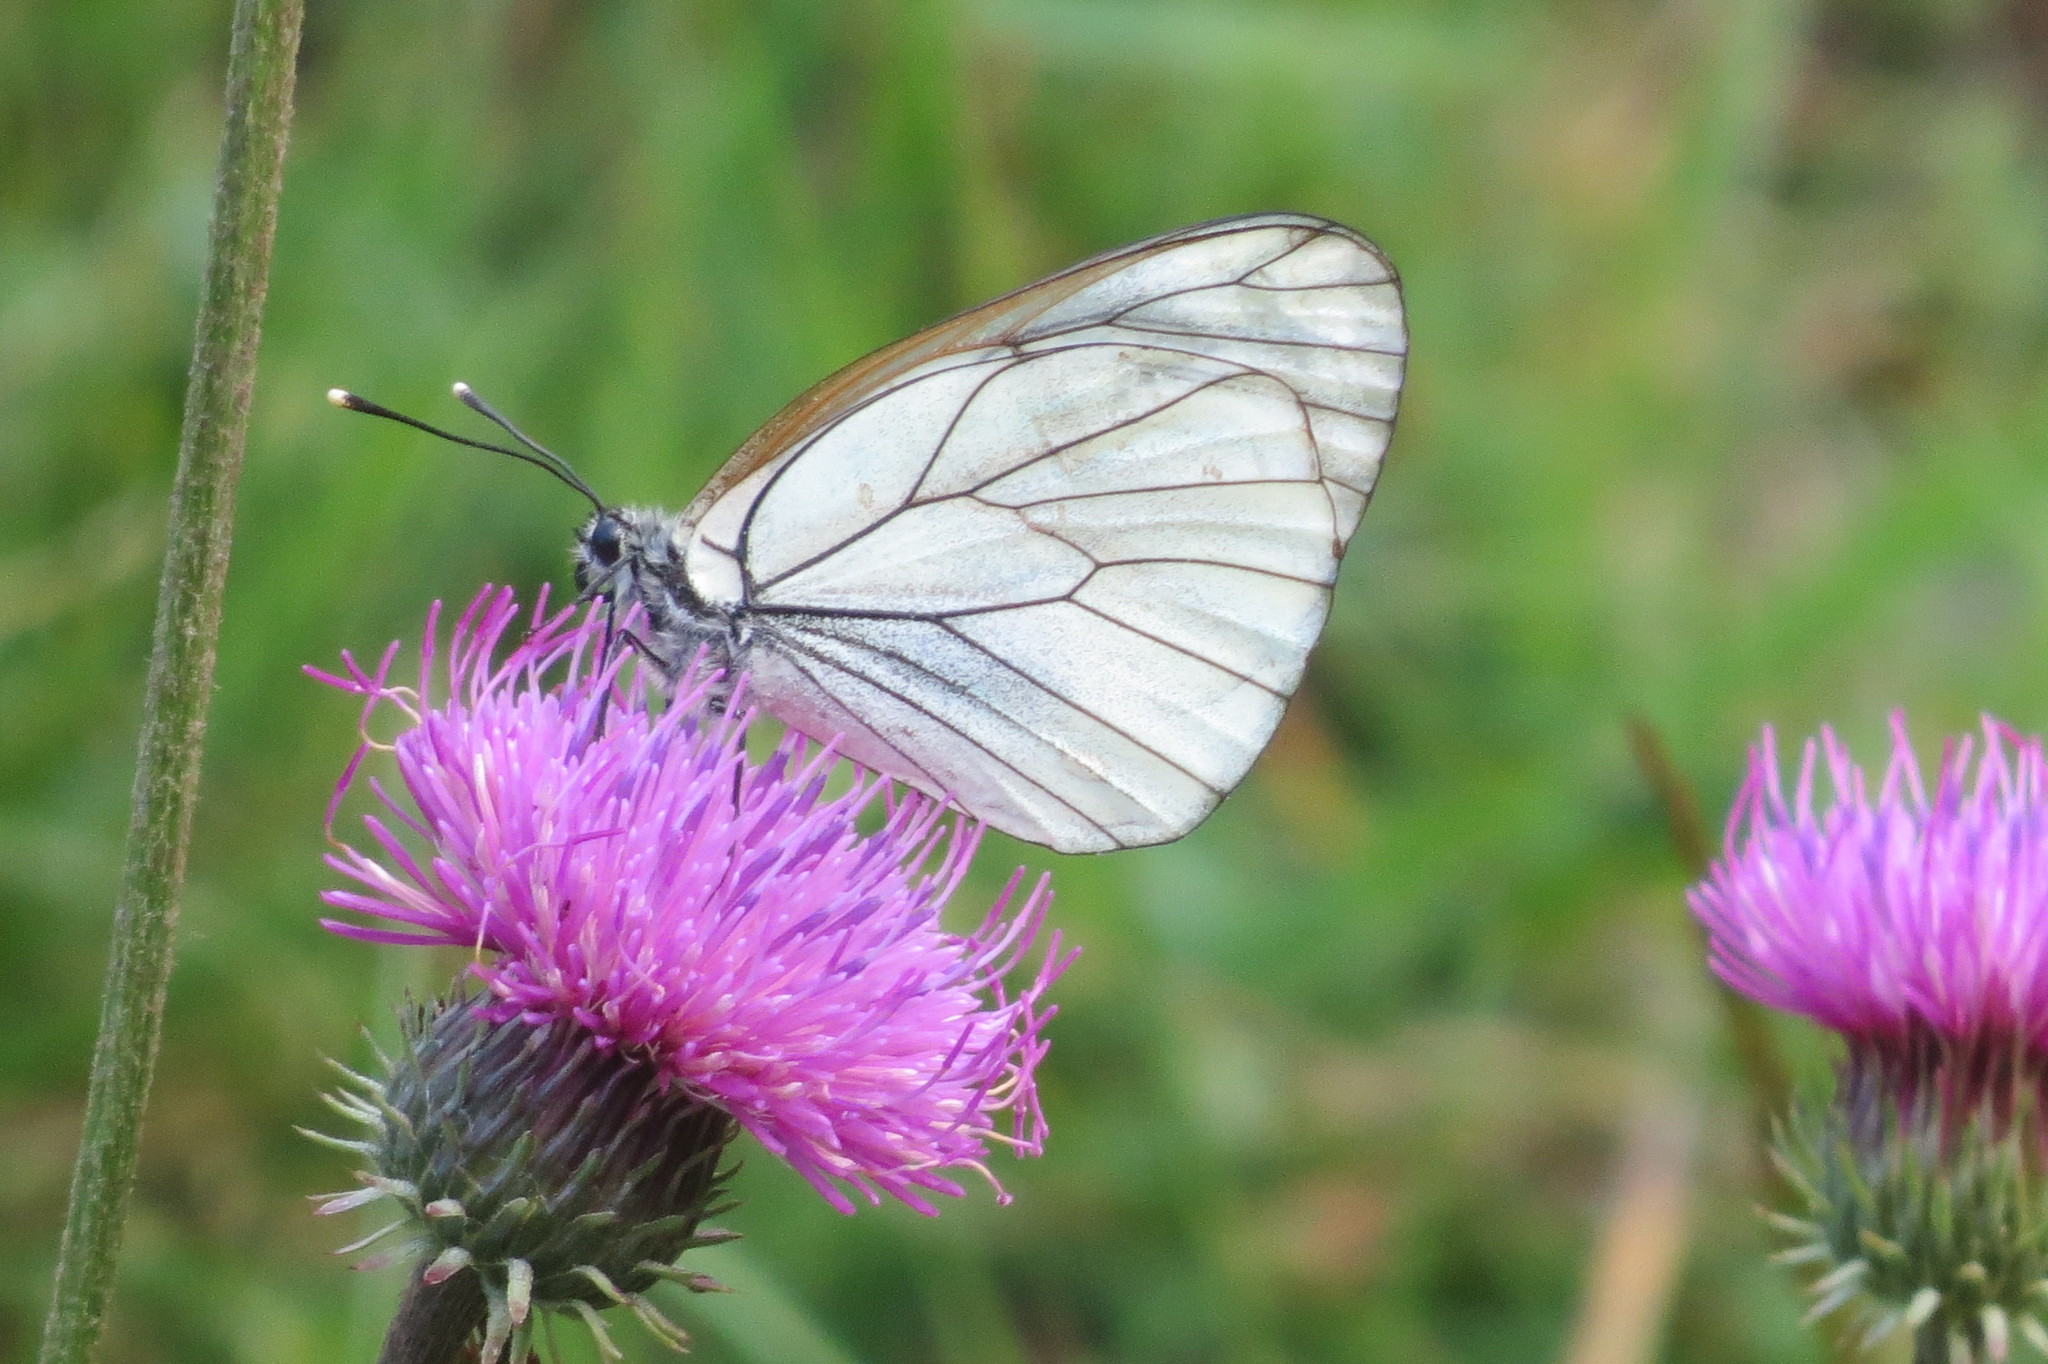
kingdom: Animalia
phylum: Arthropoda
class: Insecta
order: Lepidoptera
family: Pieridae
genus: Aporia
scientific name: Aporia crataegi
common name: Black-veined white
